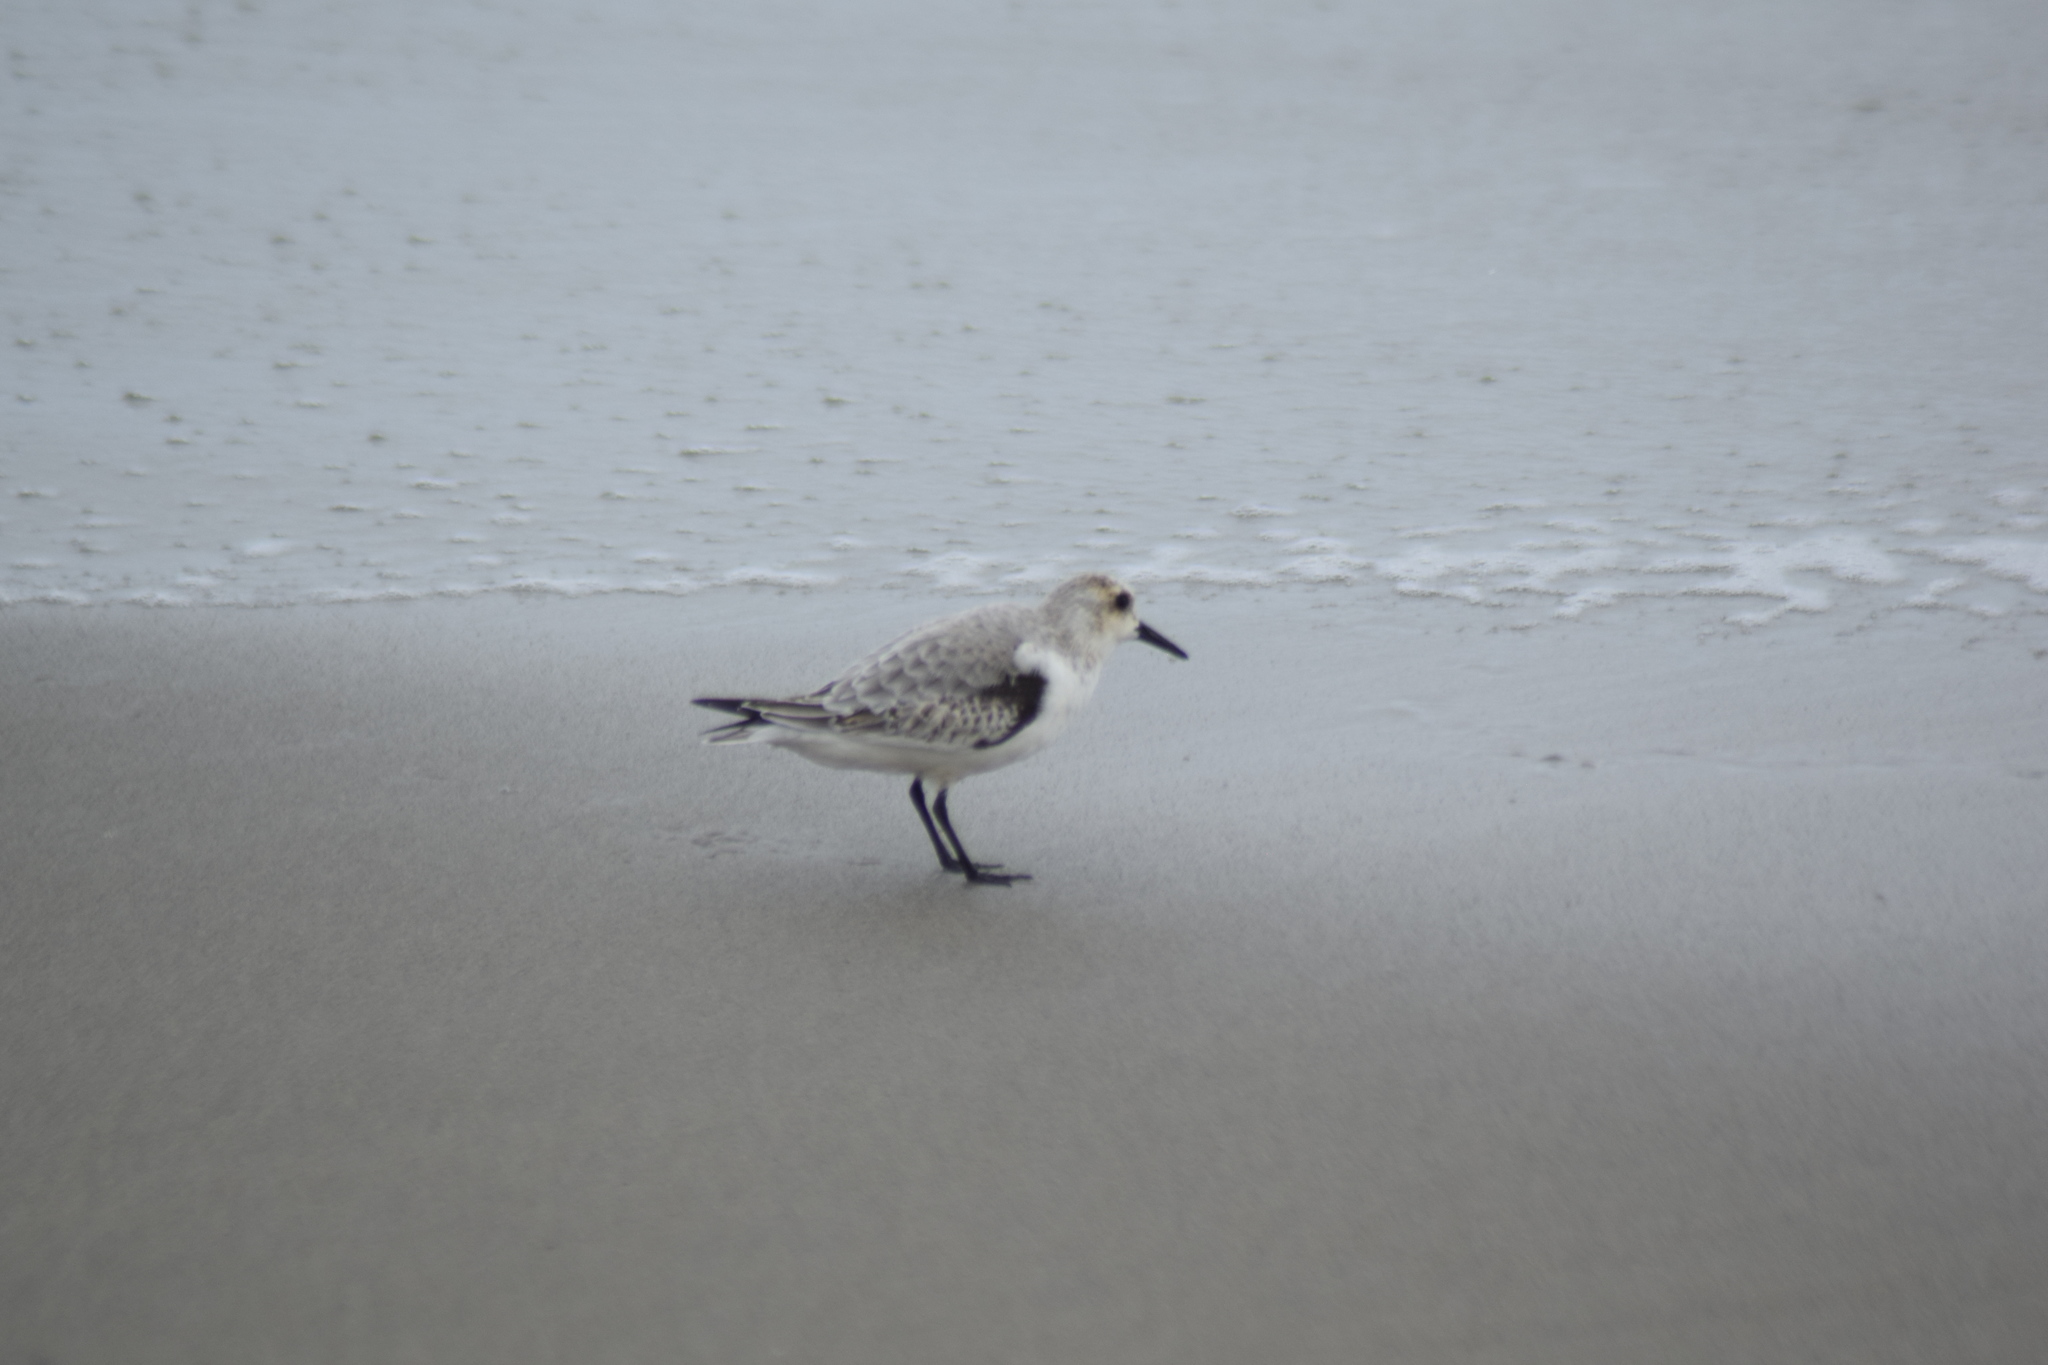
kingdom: Animalia
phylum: Chordata
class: Aves
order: Charadriiformes
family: Scolopacidae
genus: Calidris
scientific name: Calidris alba
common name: Sanderling
